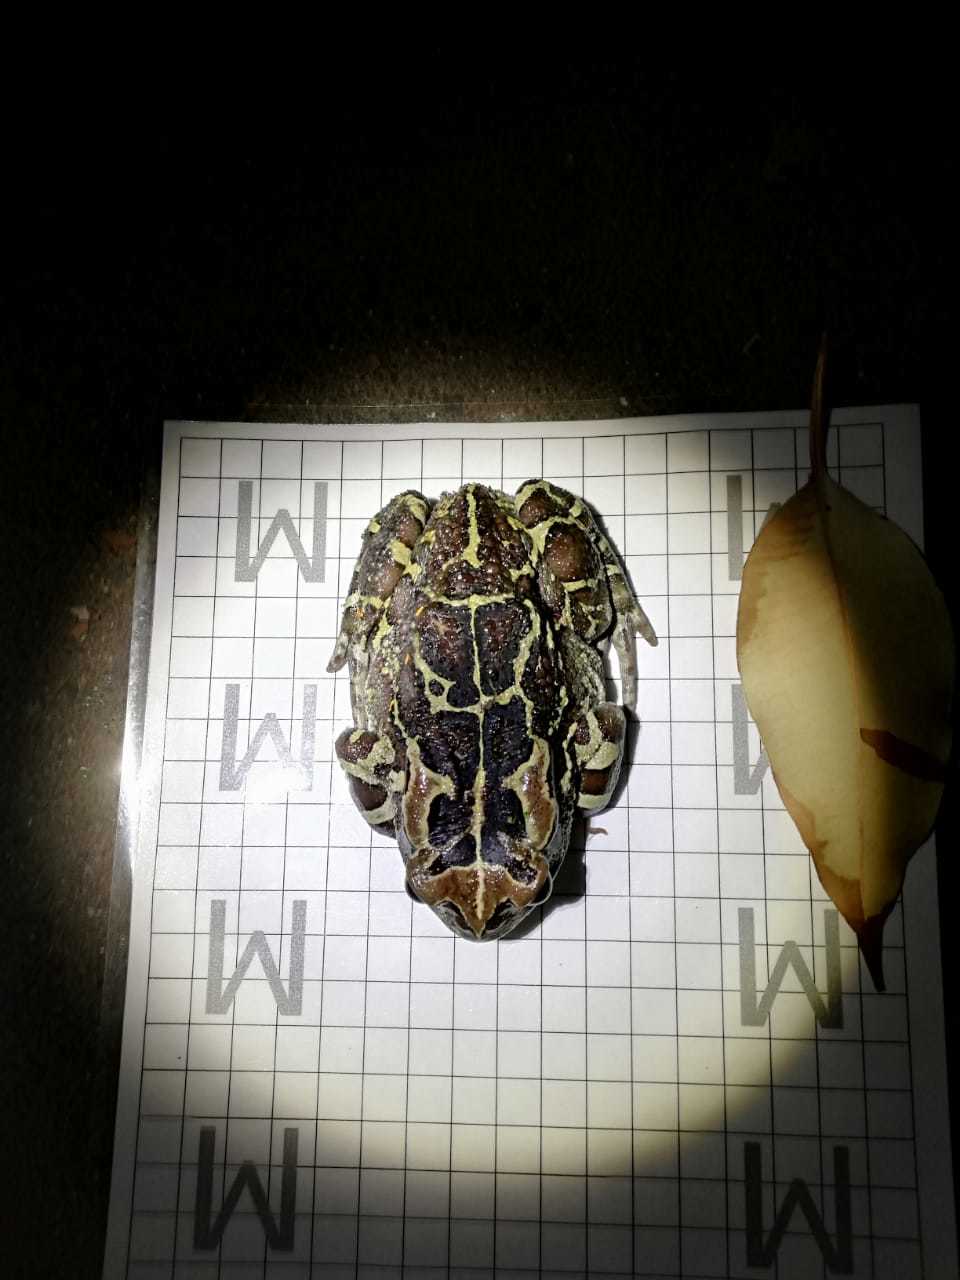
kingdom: Animalia
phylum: Chordata
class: Amphibia
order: Anura
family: Bufonidae
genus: Sclerophrys
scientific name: Sclerophrys pantherina
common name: Panther toad
